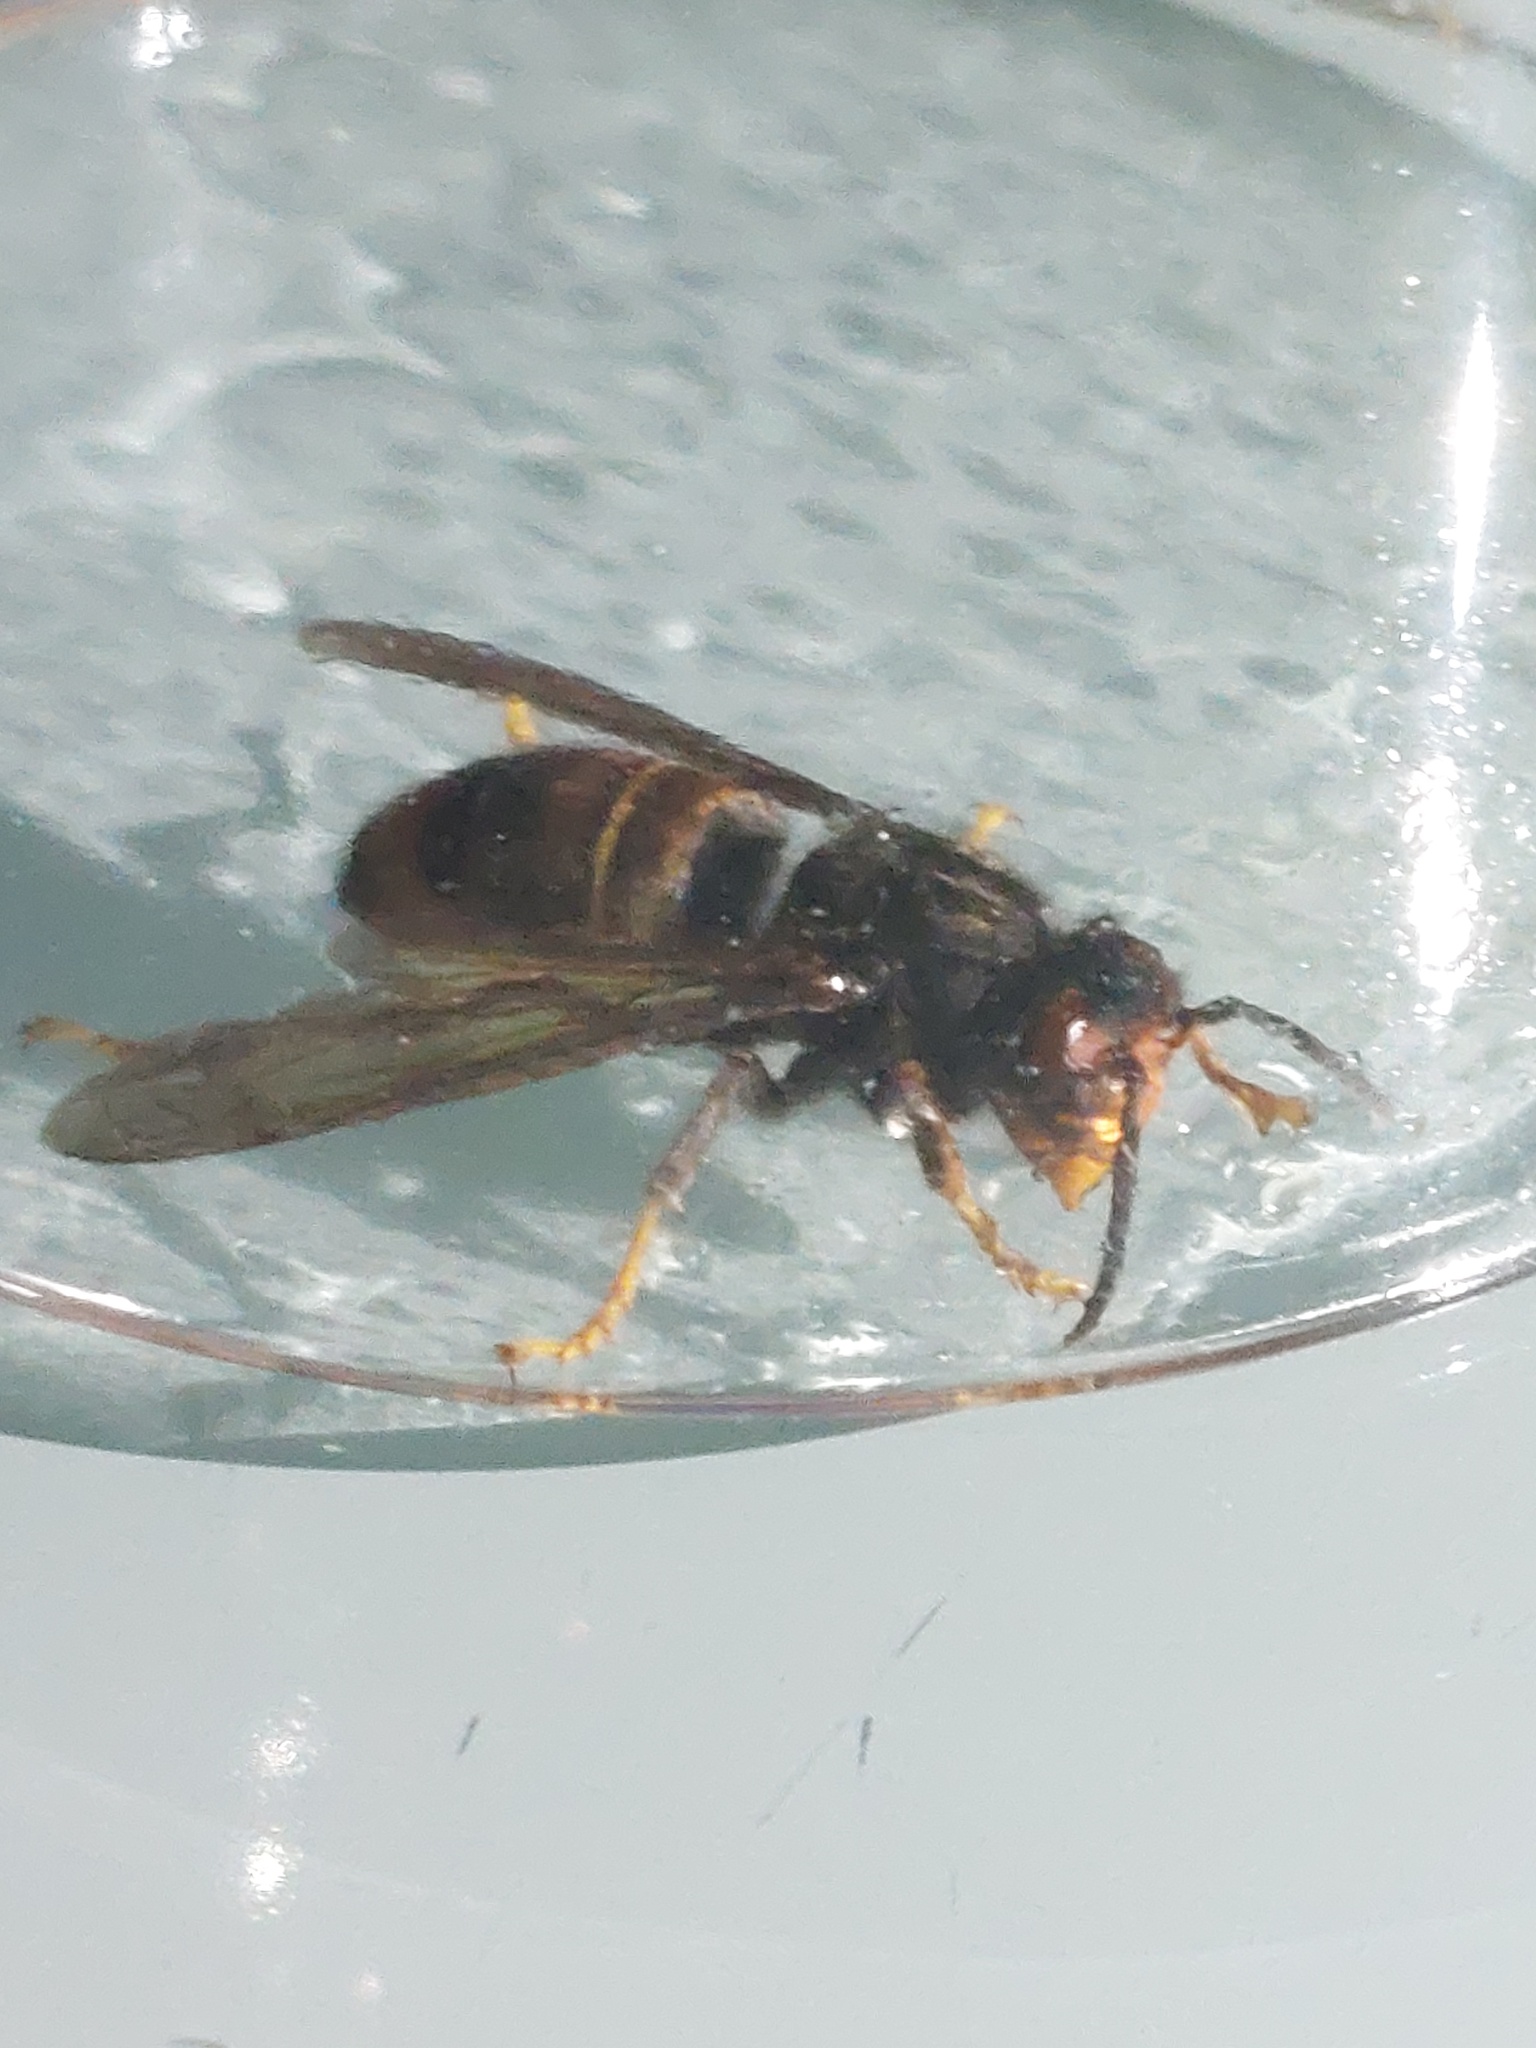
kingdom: Animalia
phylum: Arthropoda
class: Insecta
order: Hymenoptera
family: Vespidae
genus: Vespa
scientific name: Vespa velutina
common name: Asian hornet
